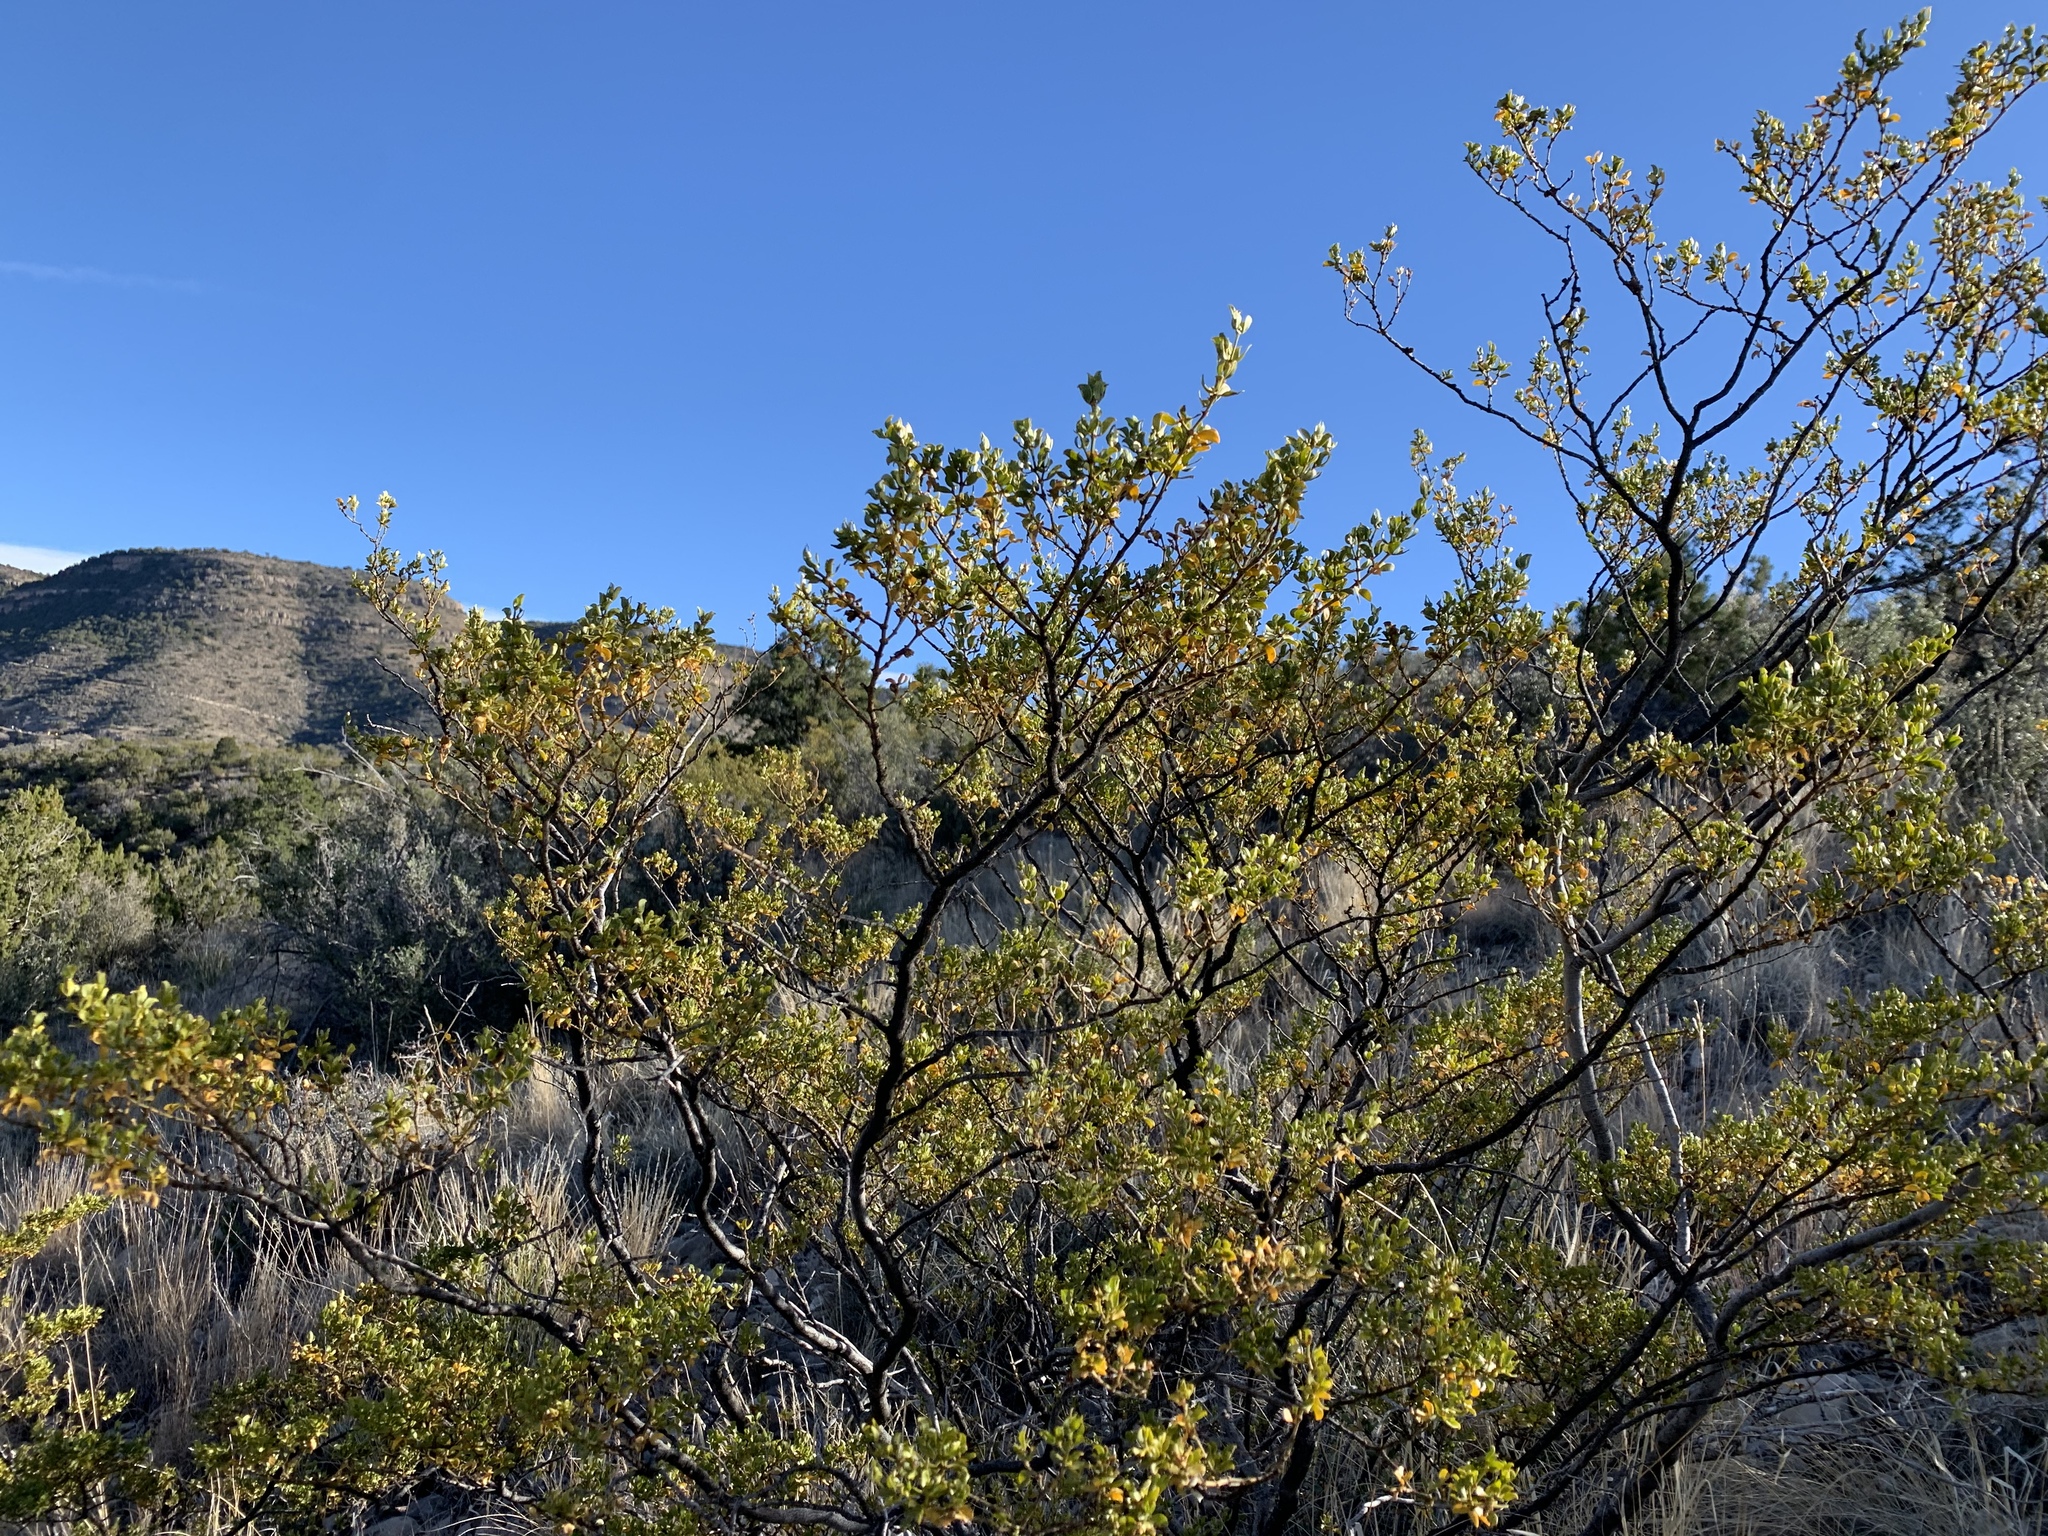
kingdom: Plantae
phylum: Tracheophyta
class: Magnoliopsida
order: Zygophyllales
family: Zygophyllaceae
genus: Larrea
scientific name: Larrea tridentata
